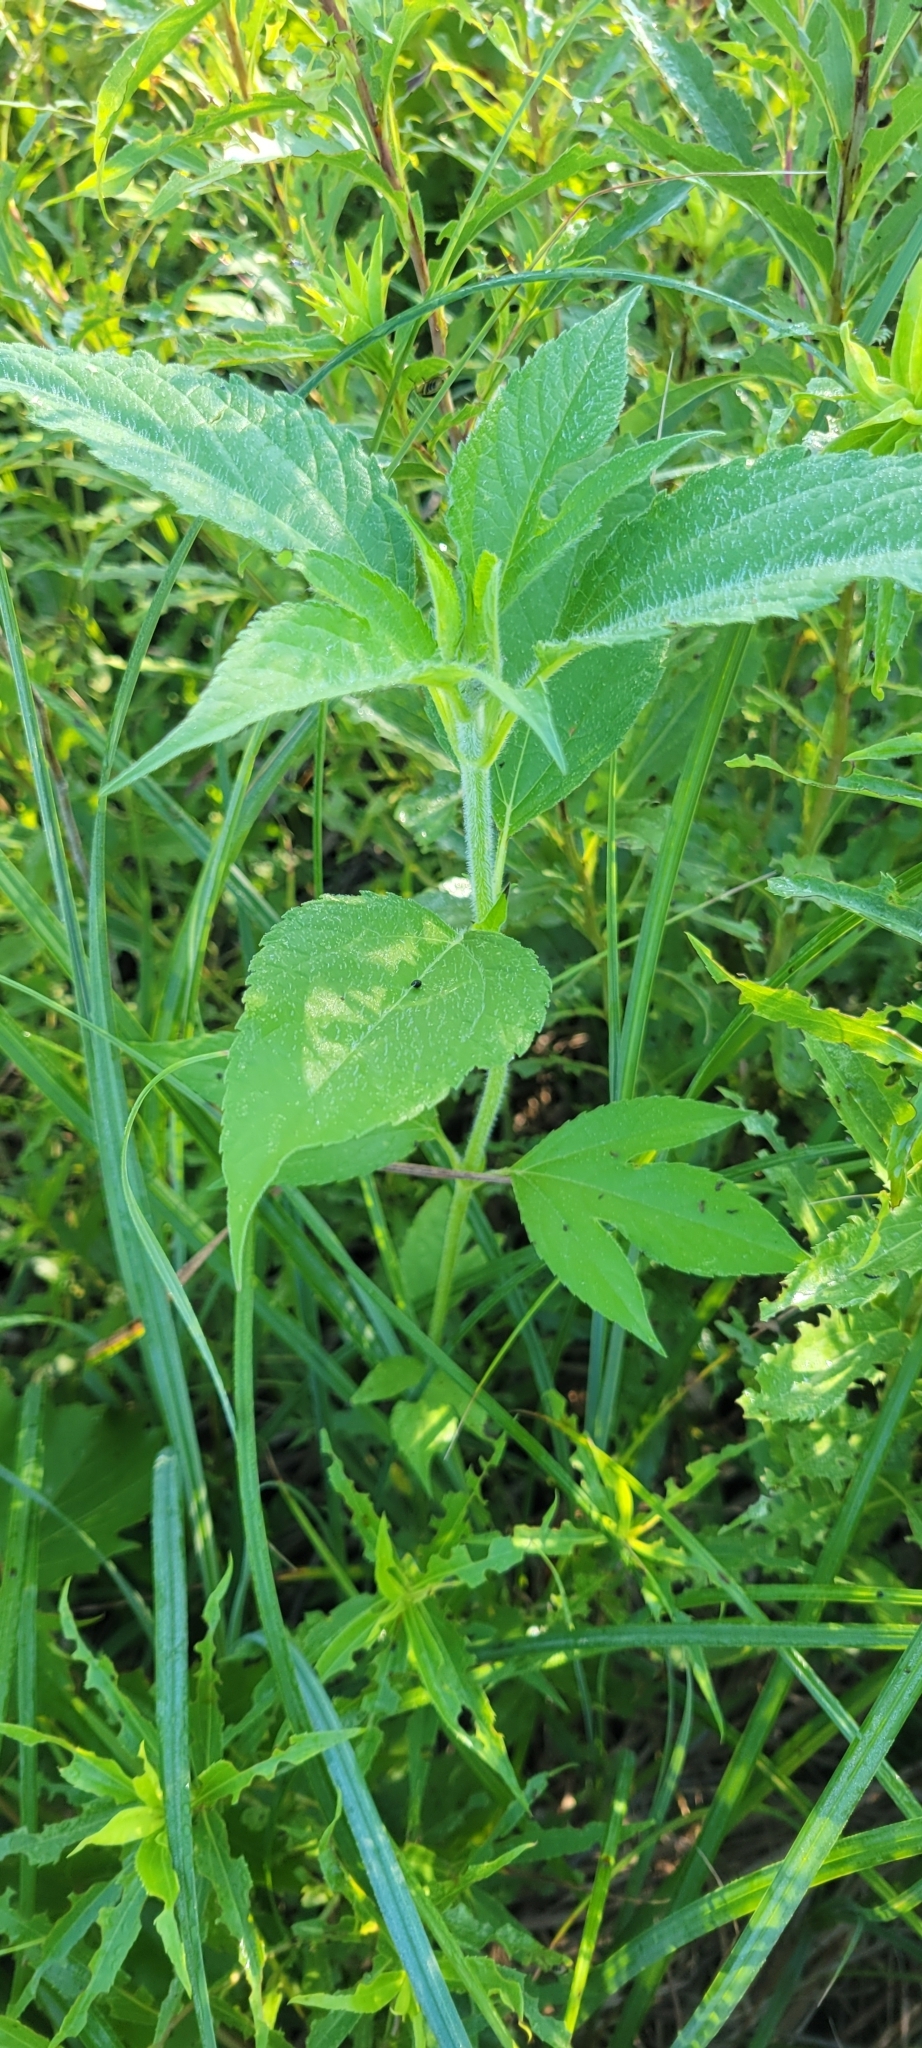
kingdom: Plantae
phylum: Tracheophyta
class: Magnoliopsida
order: Asterales
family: Asteraceae
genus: Ambrosia
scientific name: Ambrosia trifida
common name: Giant ragweed
